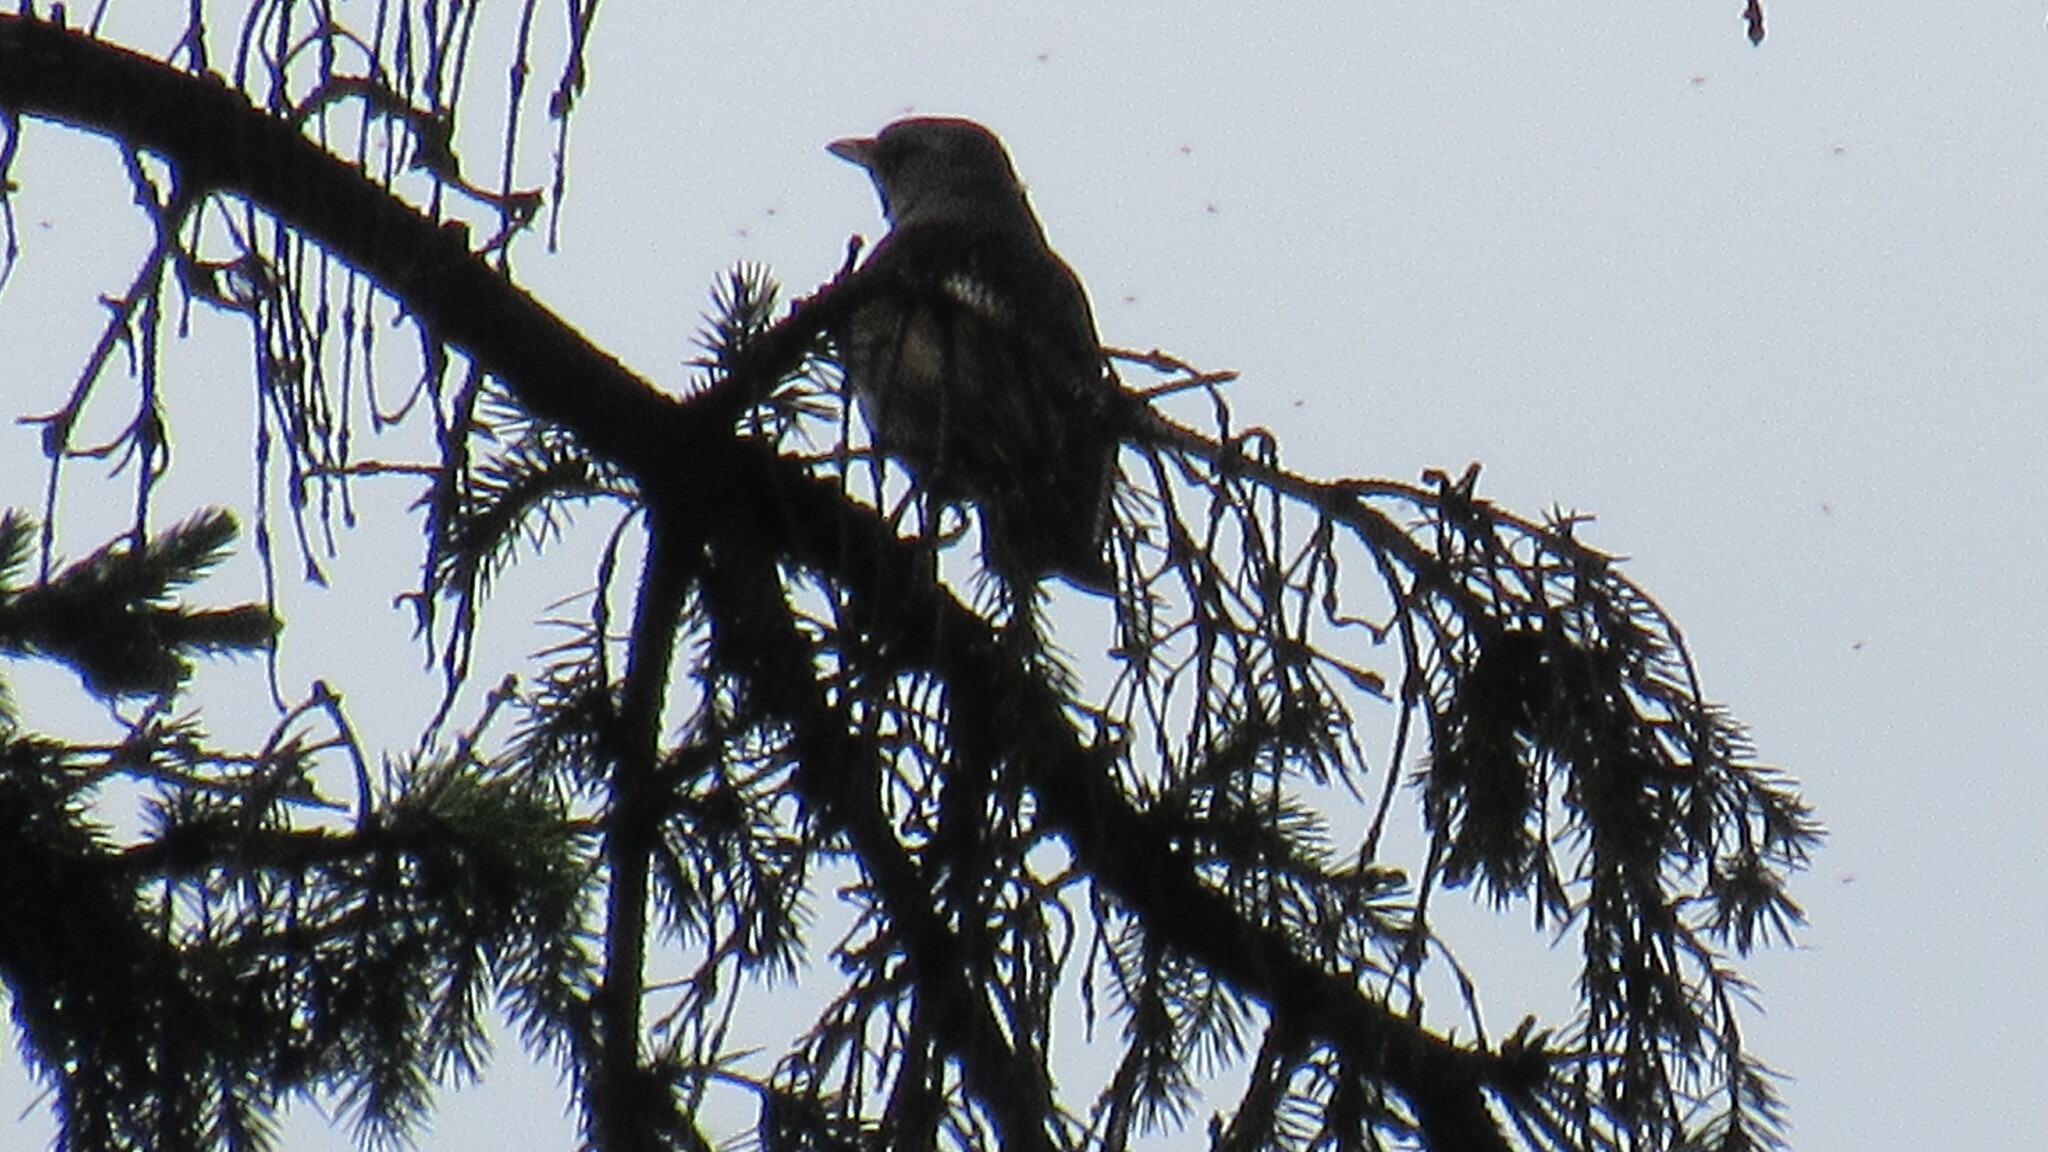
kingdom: Animalia
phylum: Chordata
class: Aves
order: Passeriformes
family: Turdidae
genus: Turdus
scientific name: Turdus pilaris
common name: Fieldfare
